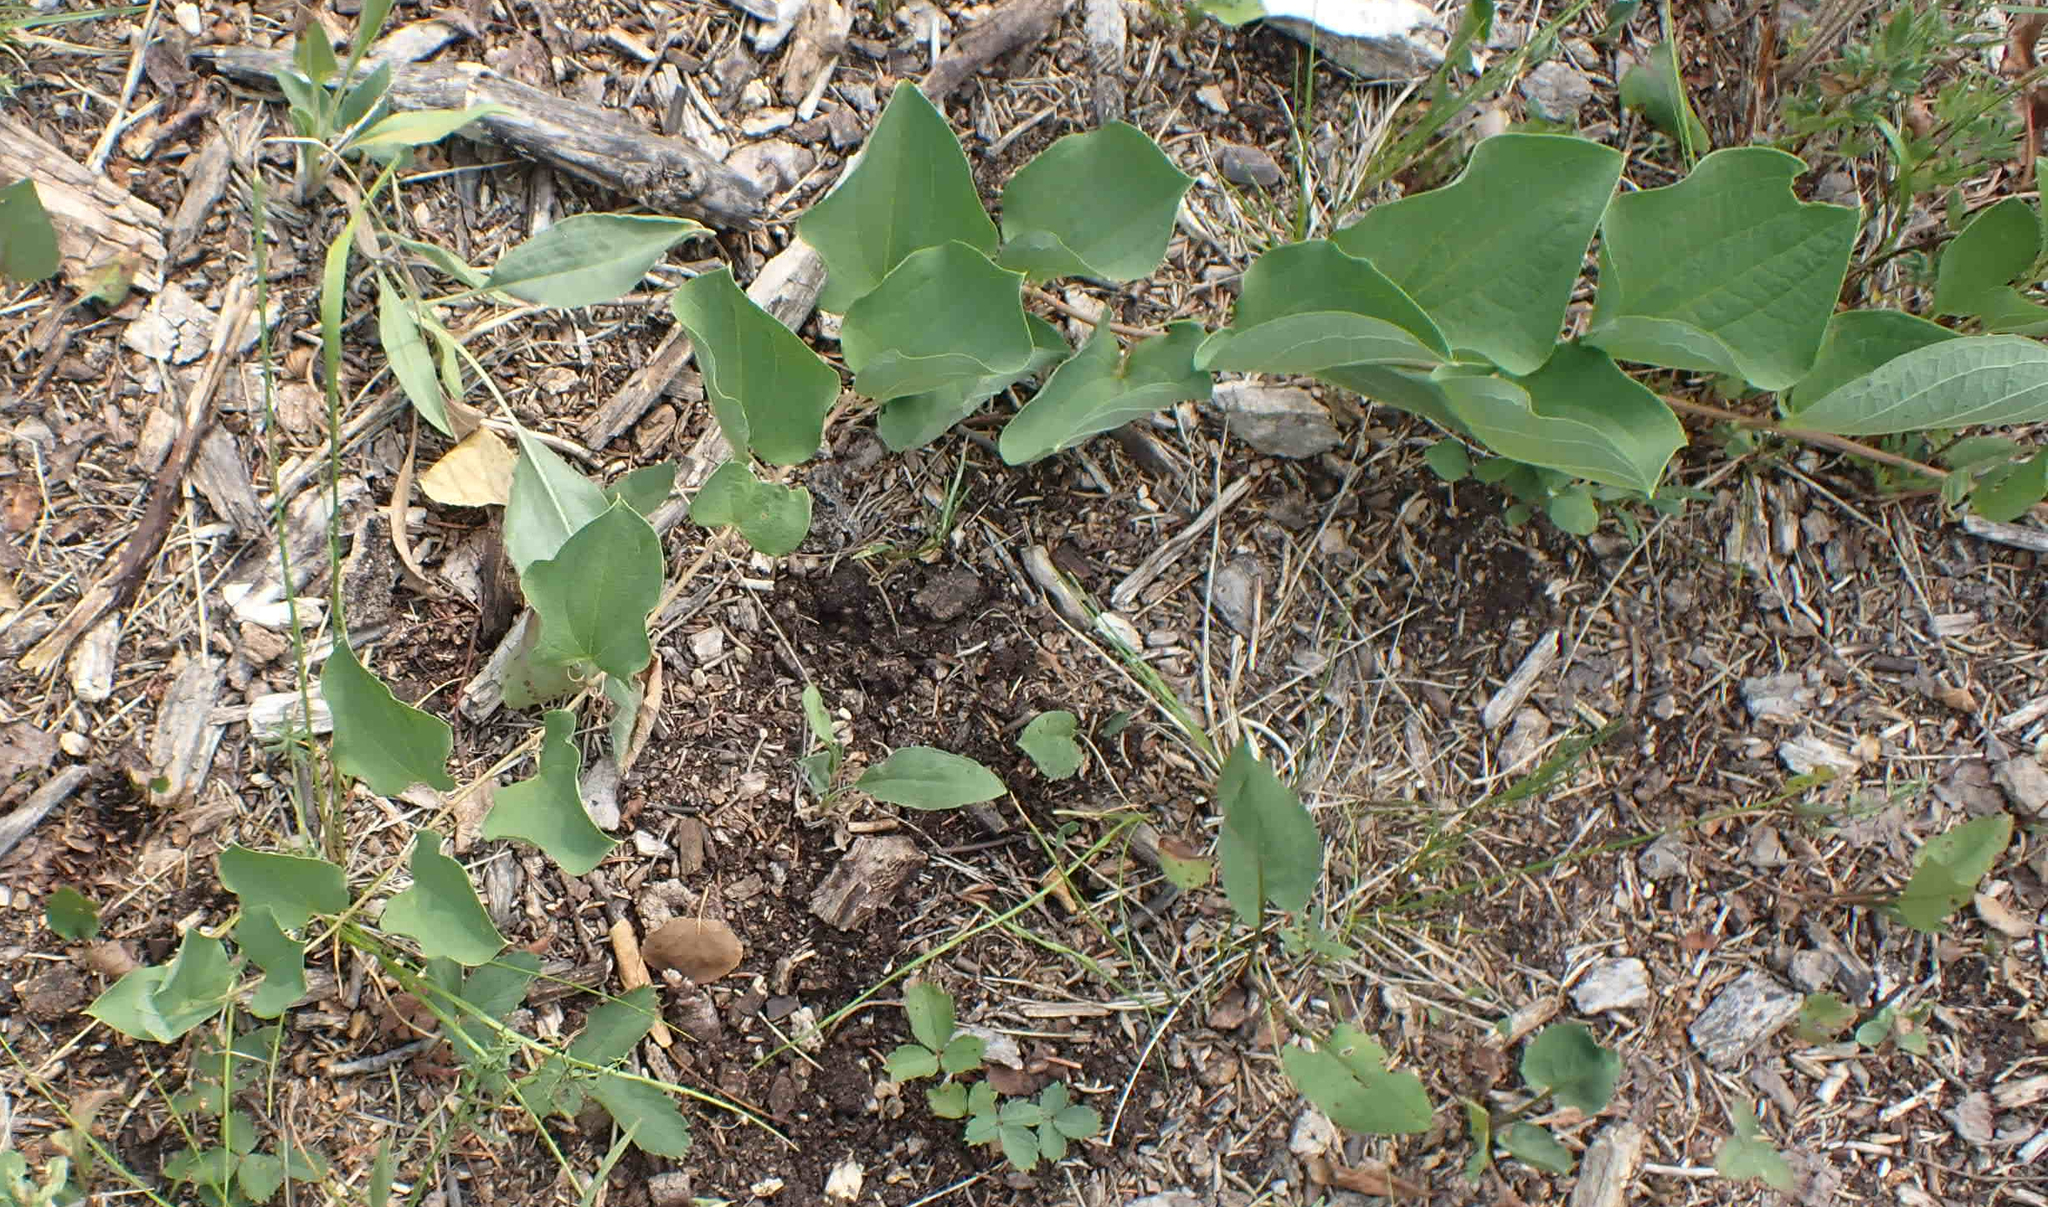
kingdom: Plantae
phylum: Tracheophyta
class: Liliopsida
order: Liliales
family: Smilacaceae
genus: Smilax
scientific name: Smilax lasioneura
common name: Blue ridge carrionflower
